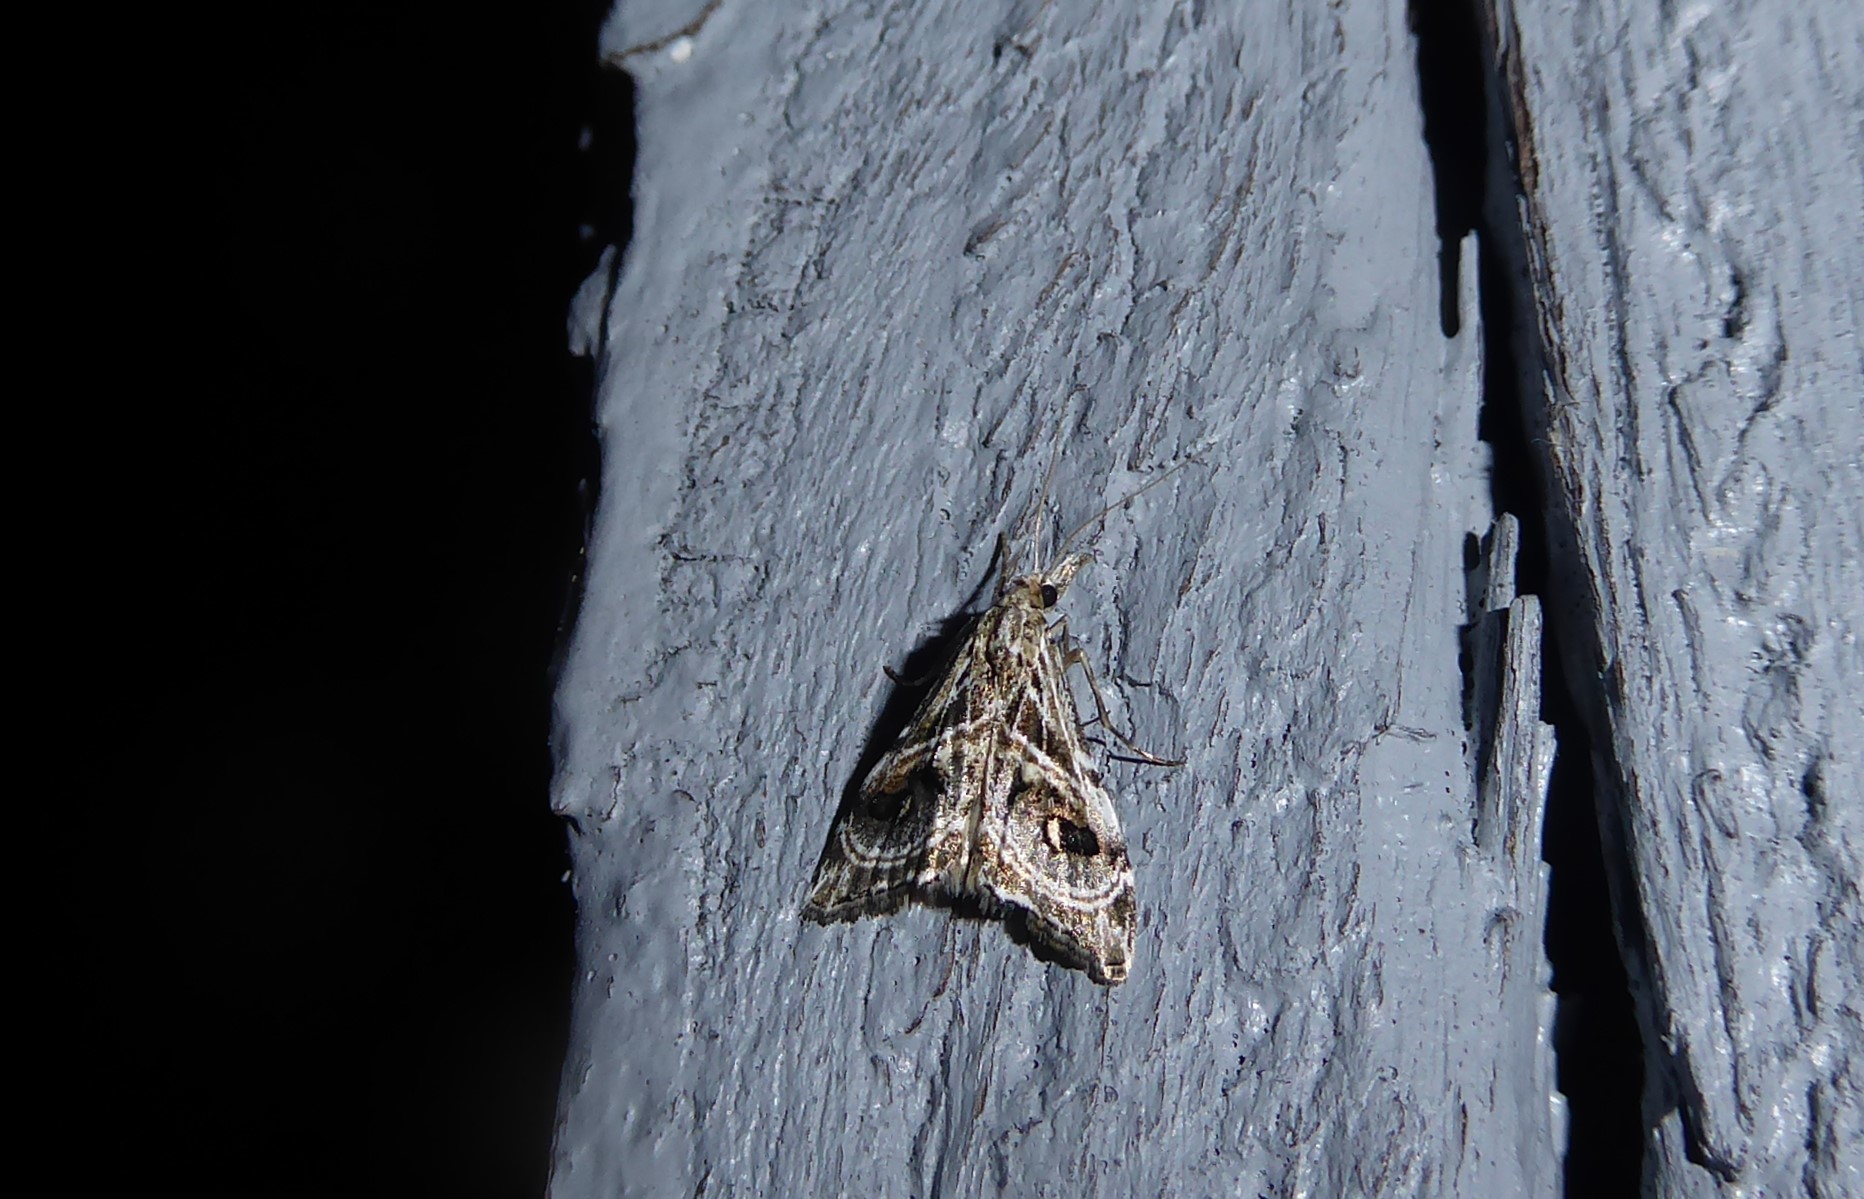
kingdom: Animalia
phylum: Arthropoda
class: Insecta
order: Lepidoptera
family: Crambidae
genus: Gadira
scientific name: Gadira acerella
